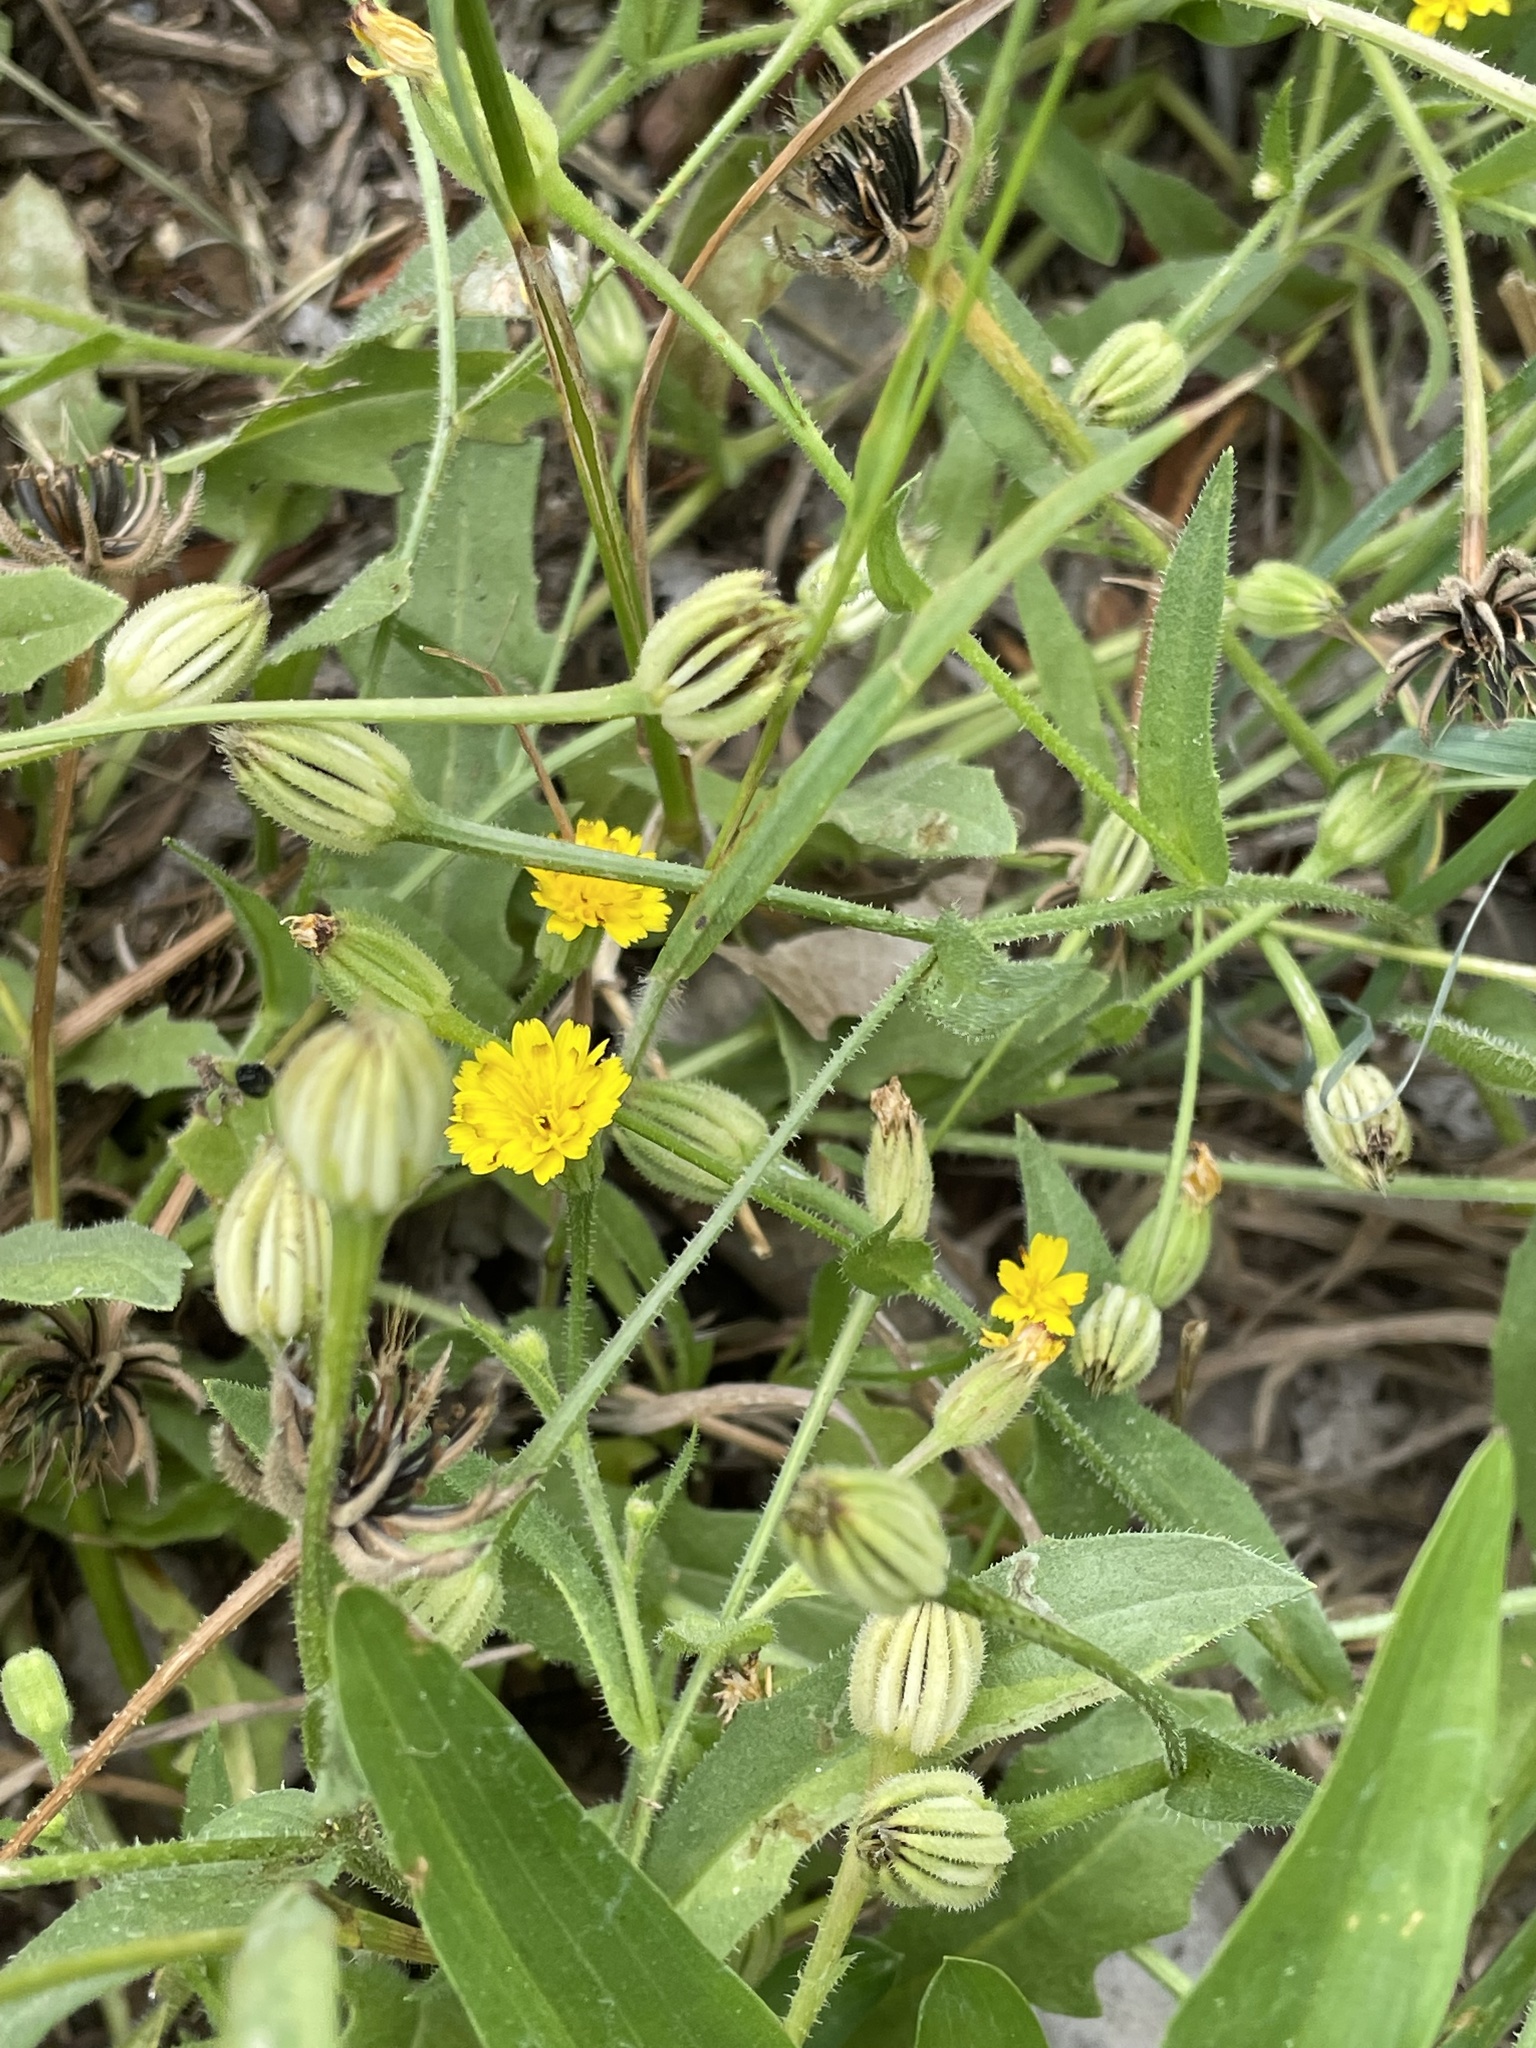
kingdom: Plantae
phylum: Tracheophyta
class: Magnoliopsida
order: Asterales
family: Asteraceae
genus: Hedypnois
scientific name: Hedypnois rhagadioloides
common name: Cretan weed
